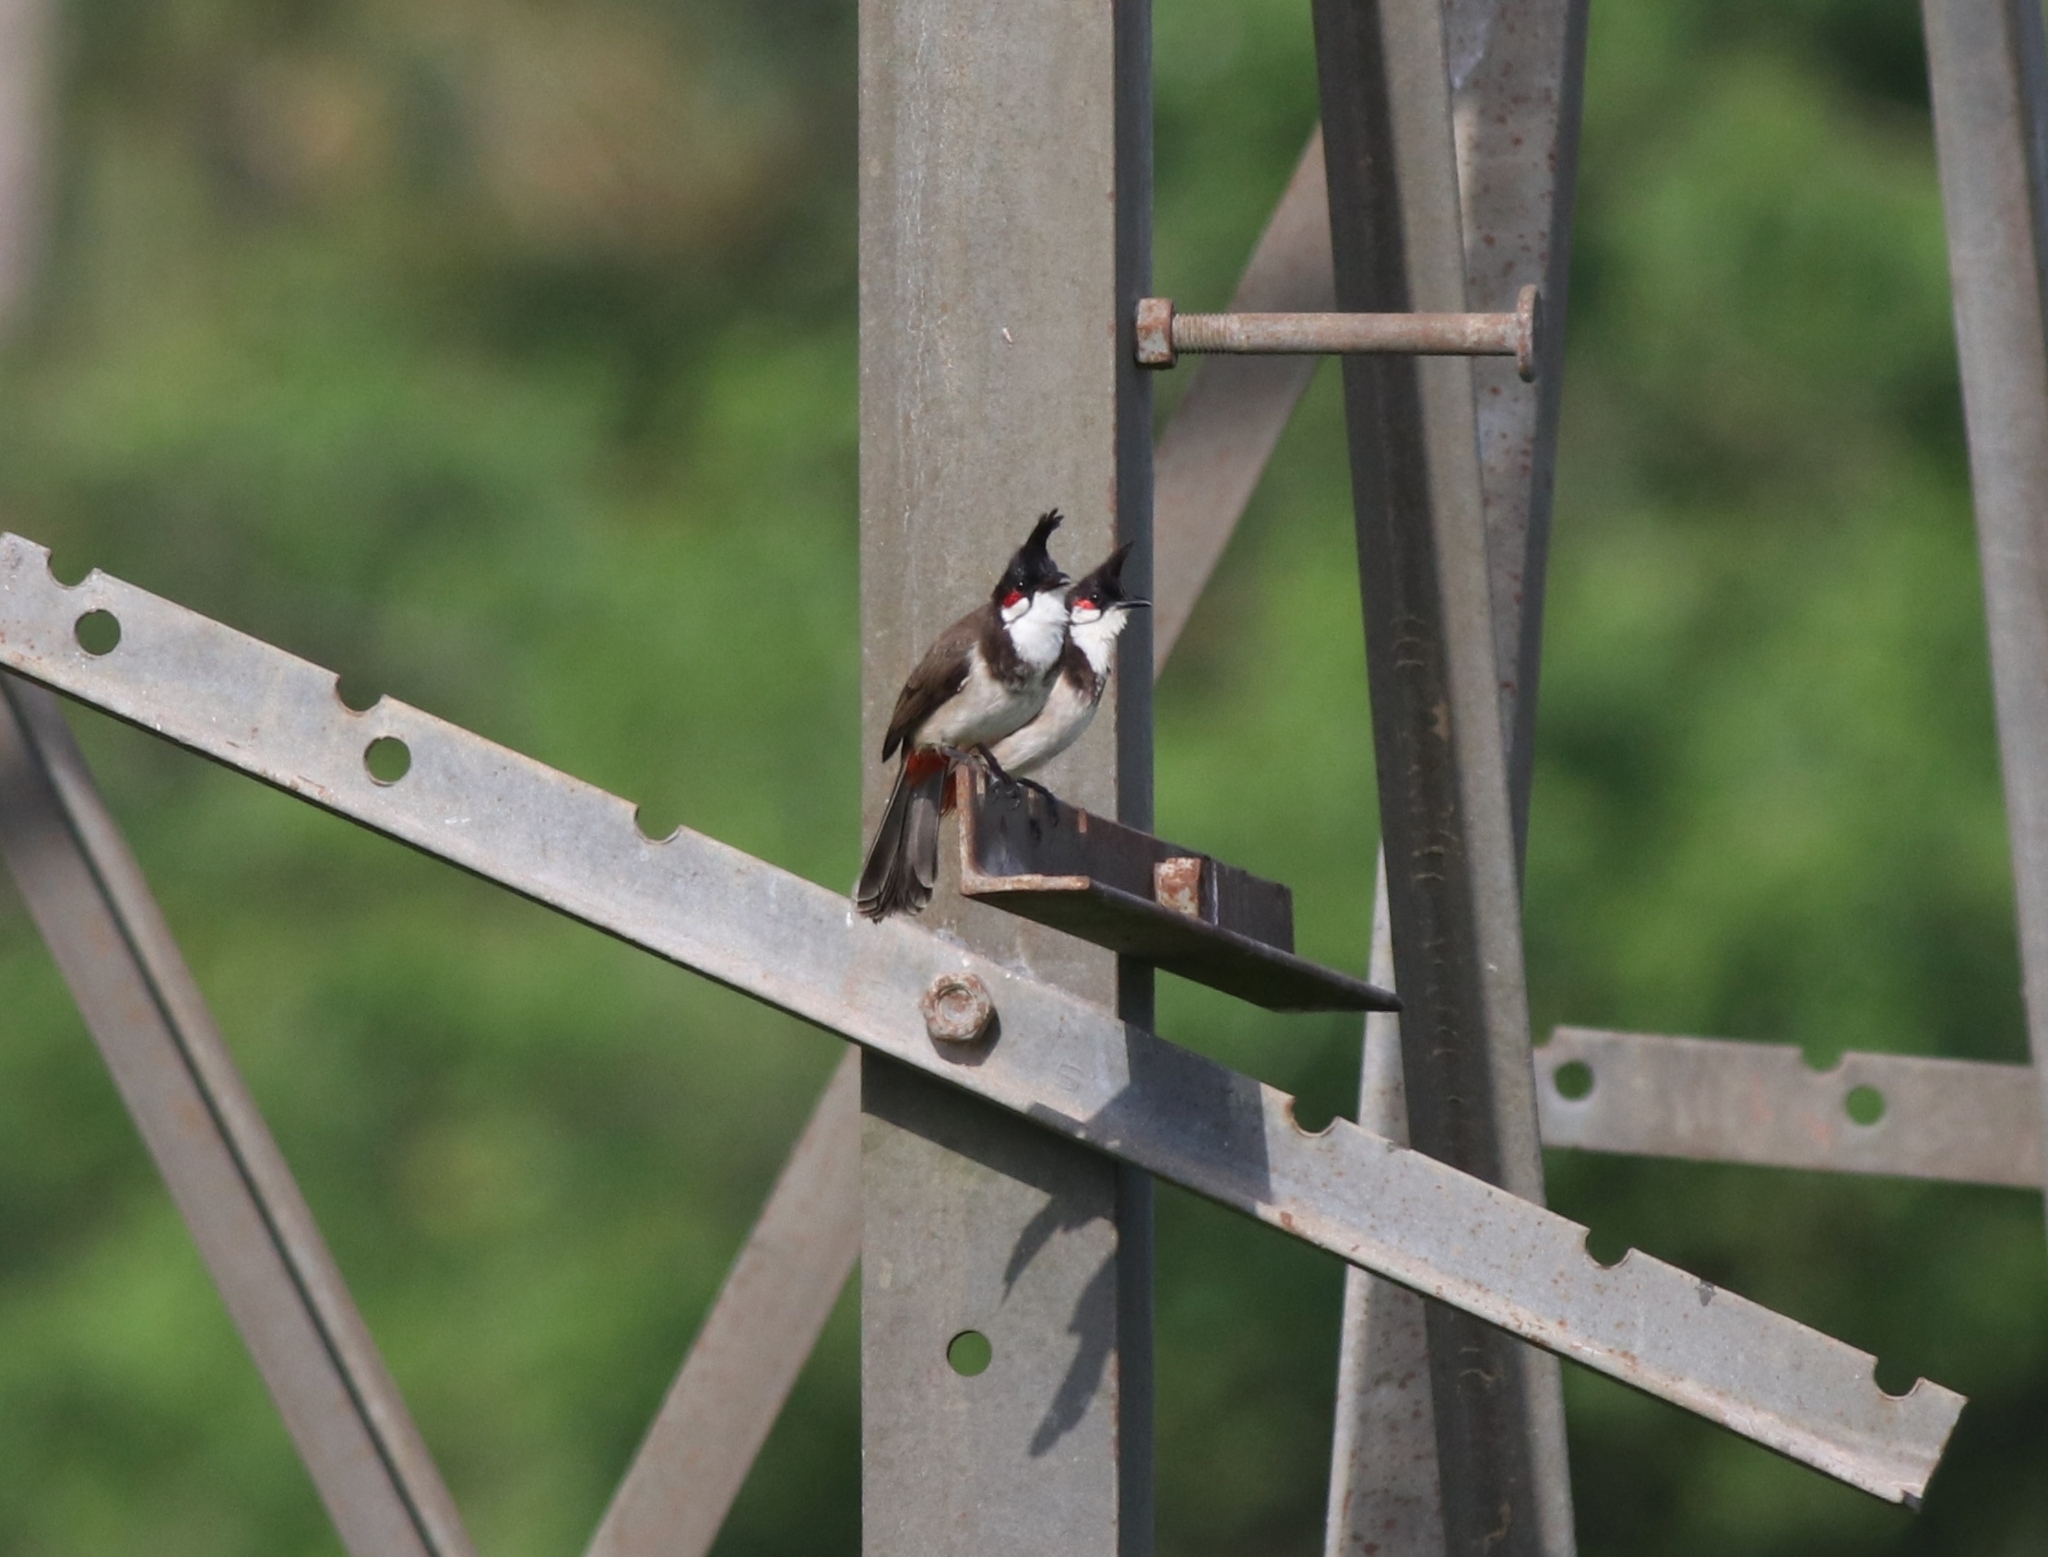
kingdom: Animalia
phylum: Chordata
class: Aves
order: Passeriformes
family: Pycnonotidae
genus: Pycnonotus
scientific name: Pycnonotus jocosus
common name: Red-whiskered bulbul
